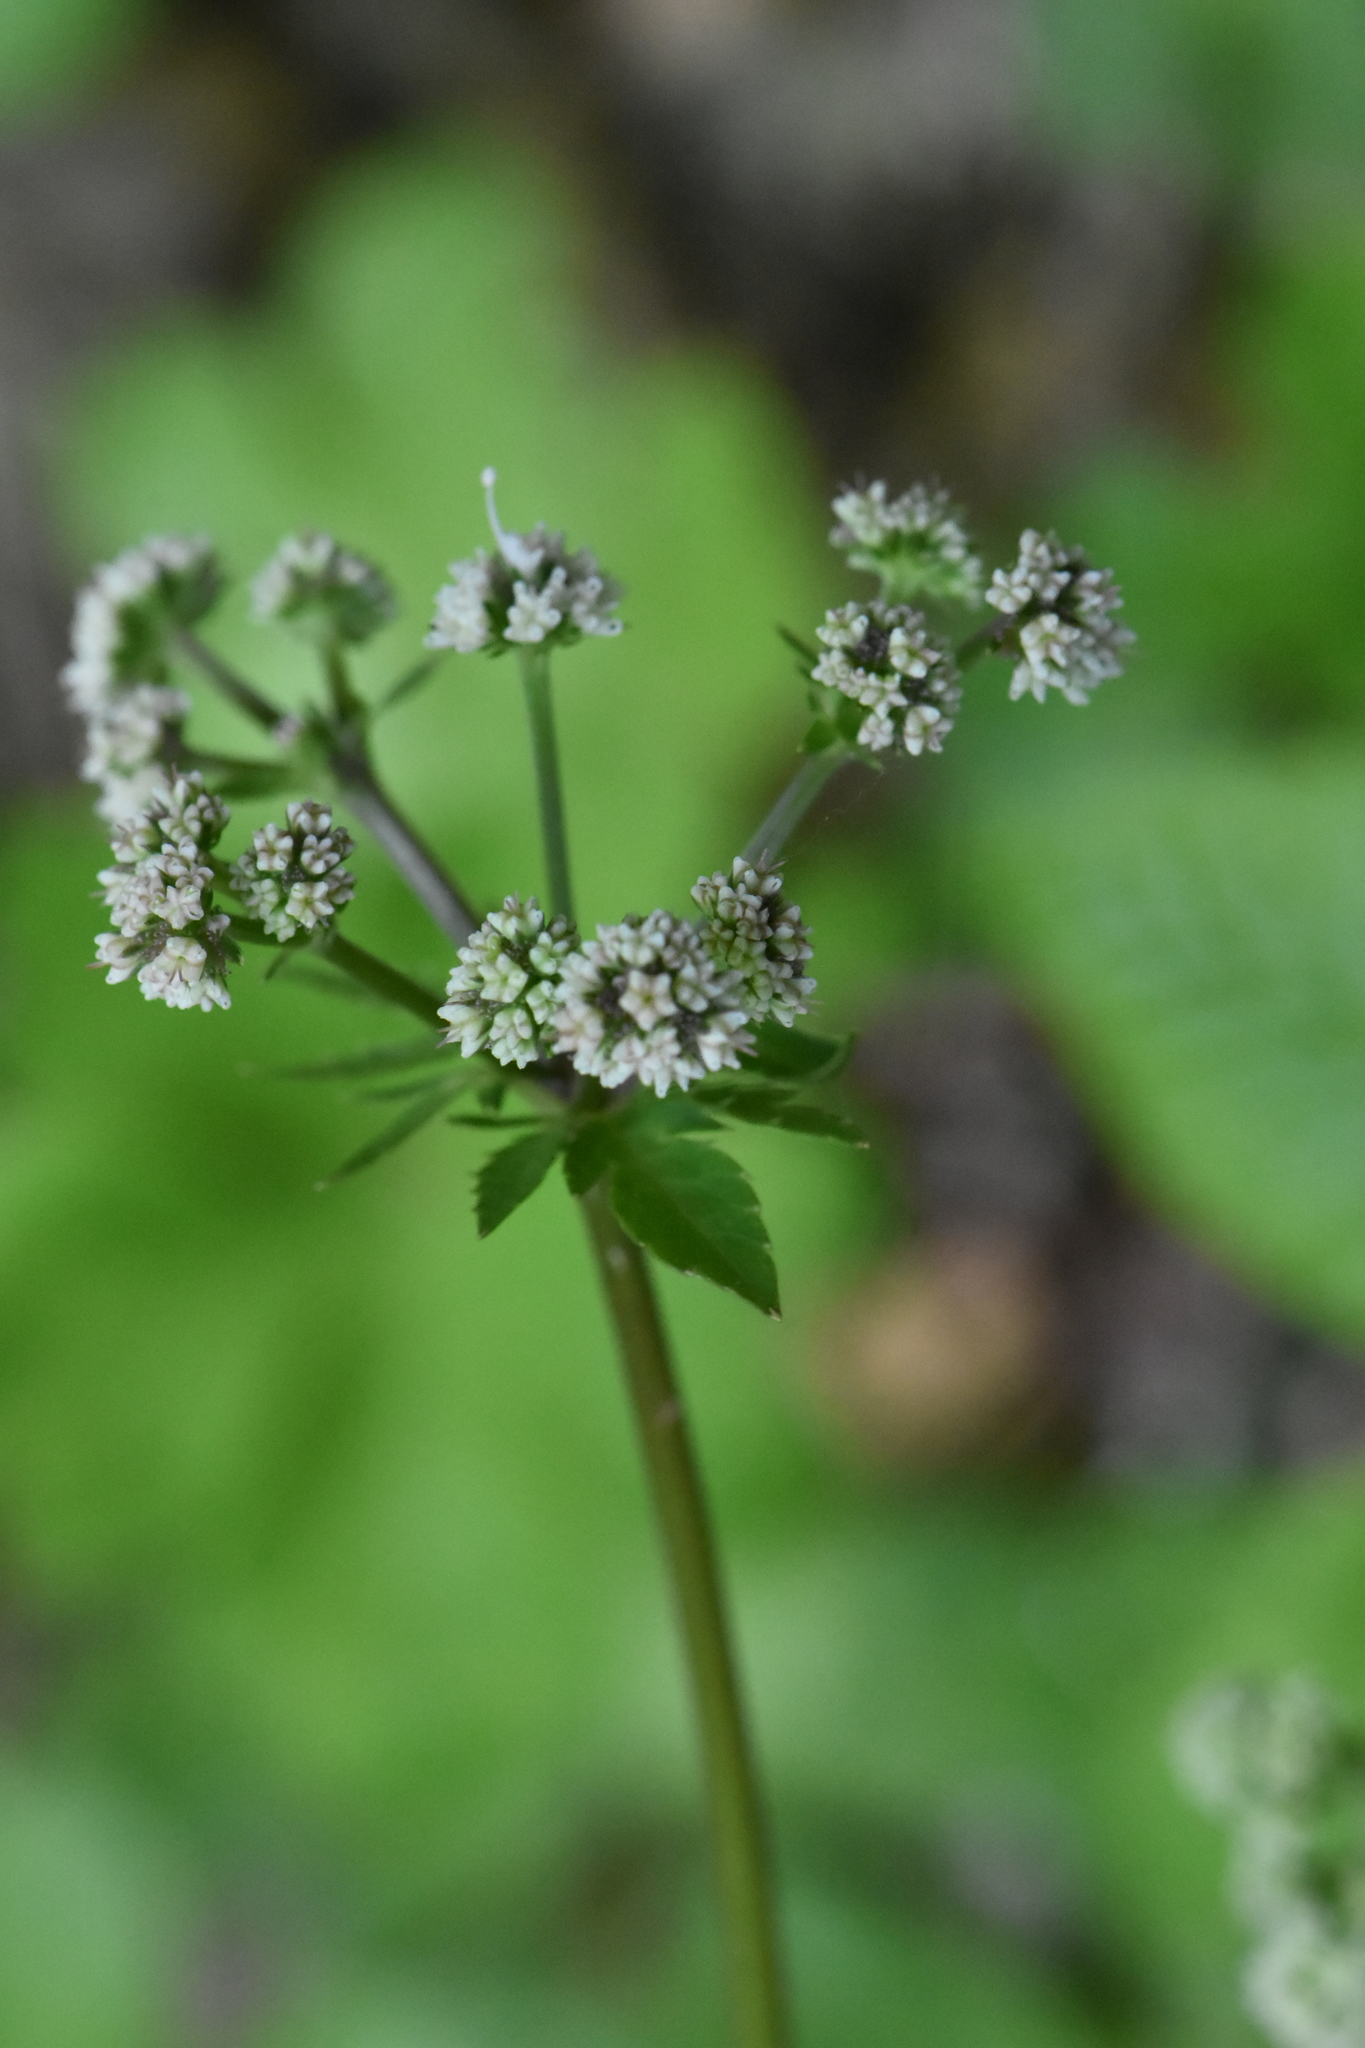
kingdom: Plantae
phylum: Tracheophyta
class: Magnoliopsida
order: Apiales
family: Apiaceae
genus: Sanicula
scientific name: Sanicula europaea
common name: Sanicle
